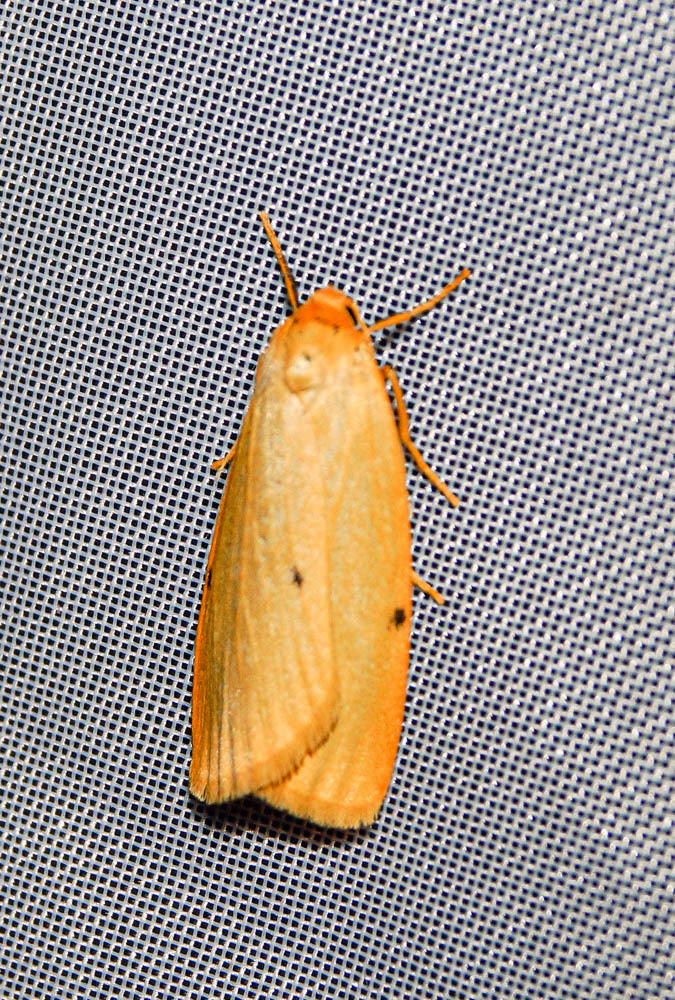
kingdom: Animalia
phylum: Arthropoda
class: Insecta
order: Lepidoptera
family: Erebidae
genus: Cybosia
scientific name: Cybosia mesomella
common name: Four-dotted footman
